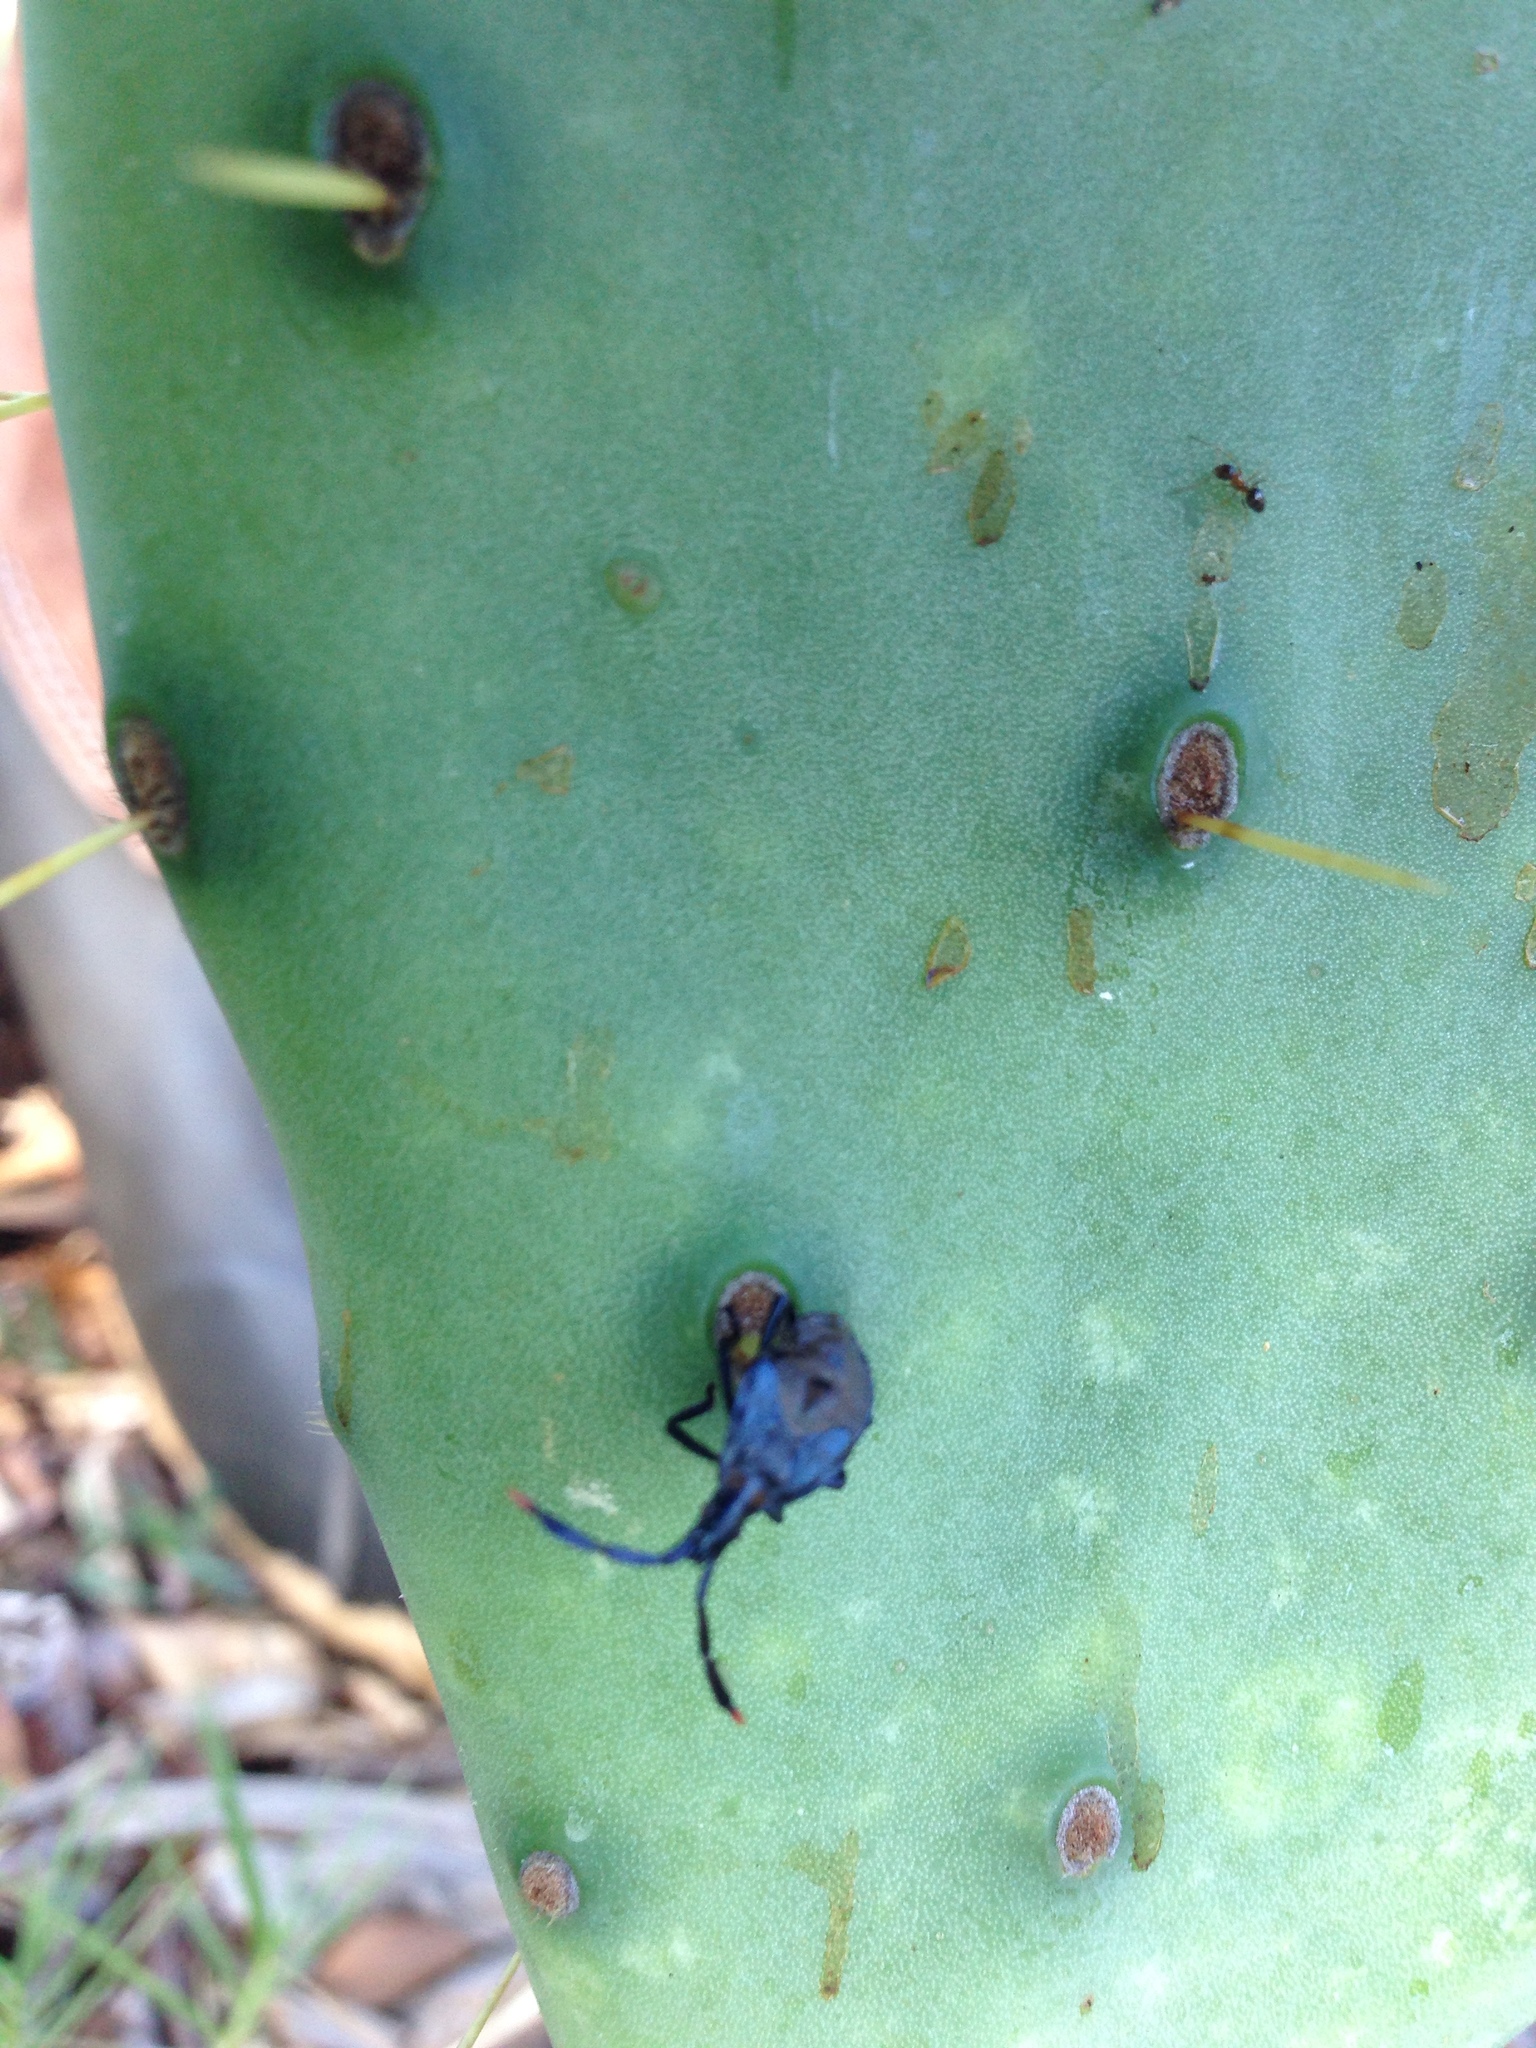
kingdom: Animalia
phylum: Arthropoda
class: Insecta
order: Hemiptera
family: Coreidae
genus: Chelinidea
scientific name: Chelinidea vittiger
